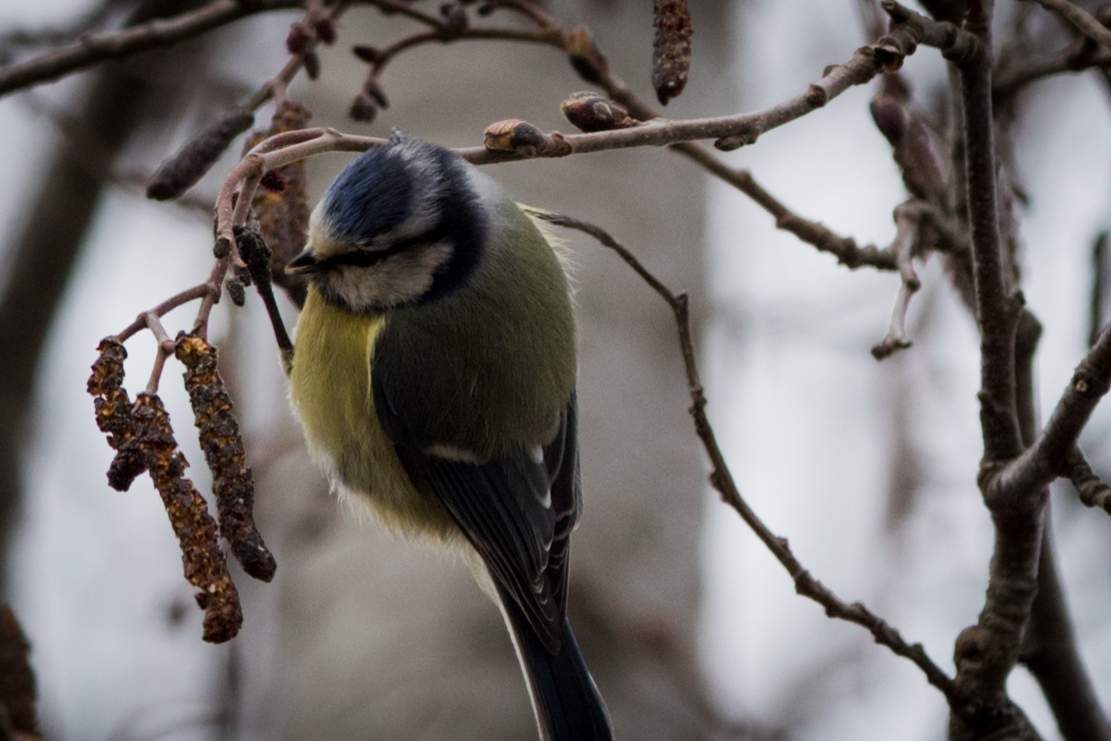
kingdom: Animalia
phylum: Chordata
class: Aves
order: Passeriformes
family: Paridae
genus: Cyanistes
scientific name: Cyanistes caeruleus
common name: Eurasian blue tit
